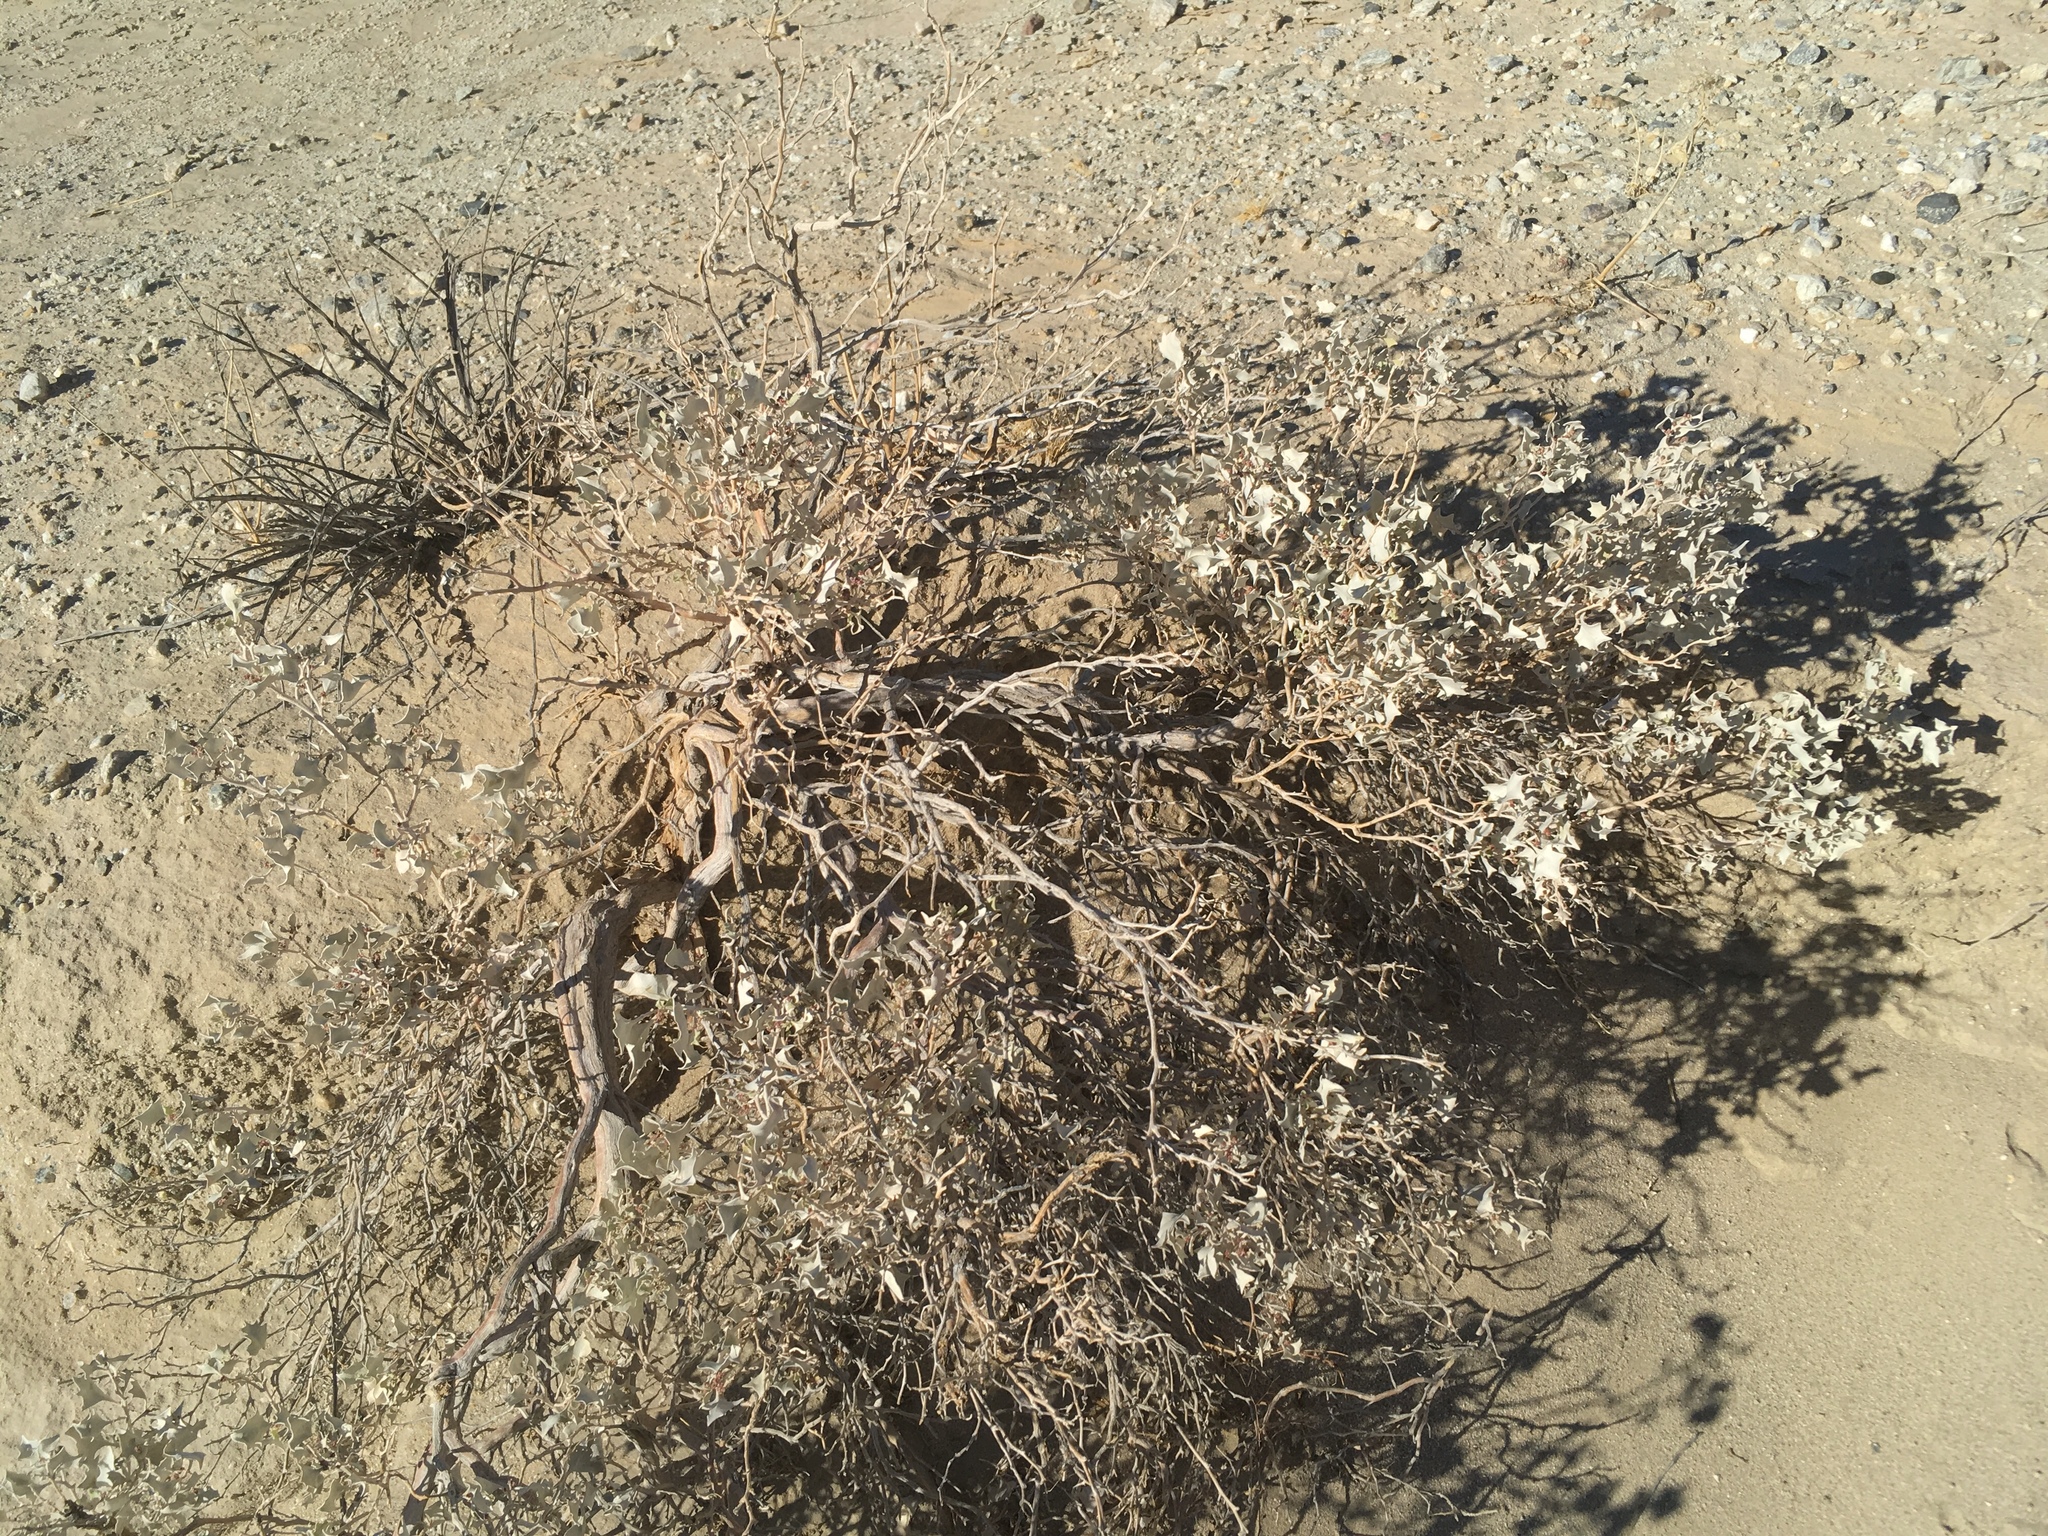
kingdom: Plantae
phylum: Tracheophyta
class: Magnoliopsida
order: Caryophyllales
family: Amaranthaceae
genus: Atriplex
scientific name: Atriplex hymenelytra
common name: Desert-holly
